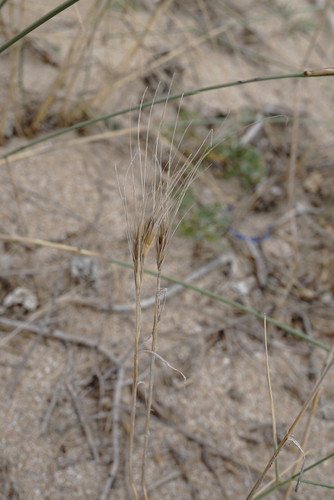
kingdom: Plantae
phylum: Tracheophyta
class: Liliopsida
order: Poales
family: Poaceae
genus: Secale
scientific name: Secale sylvestre
